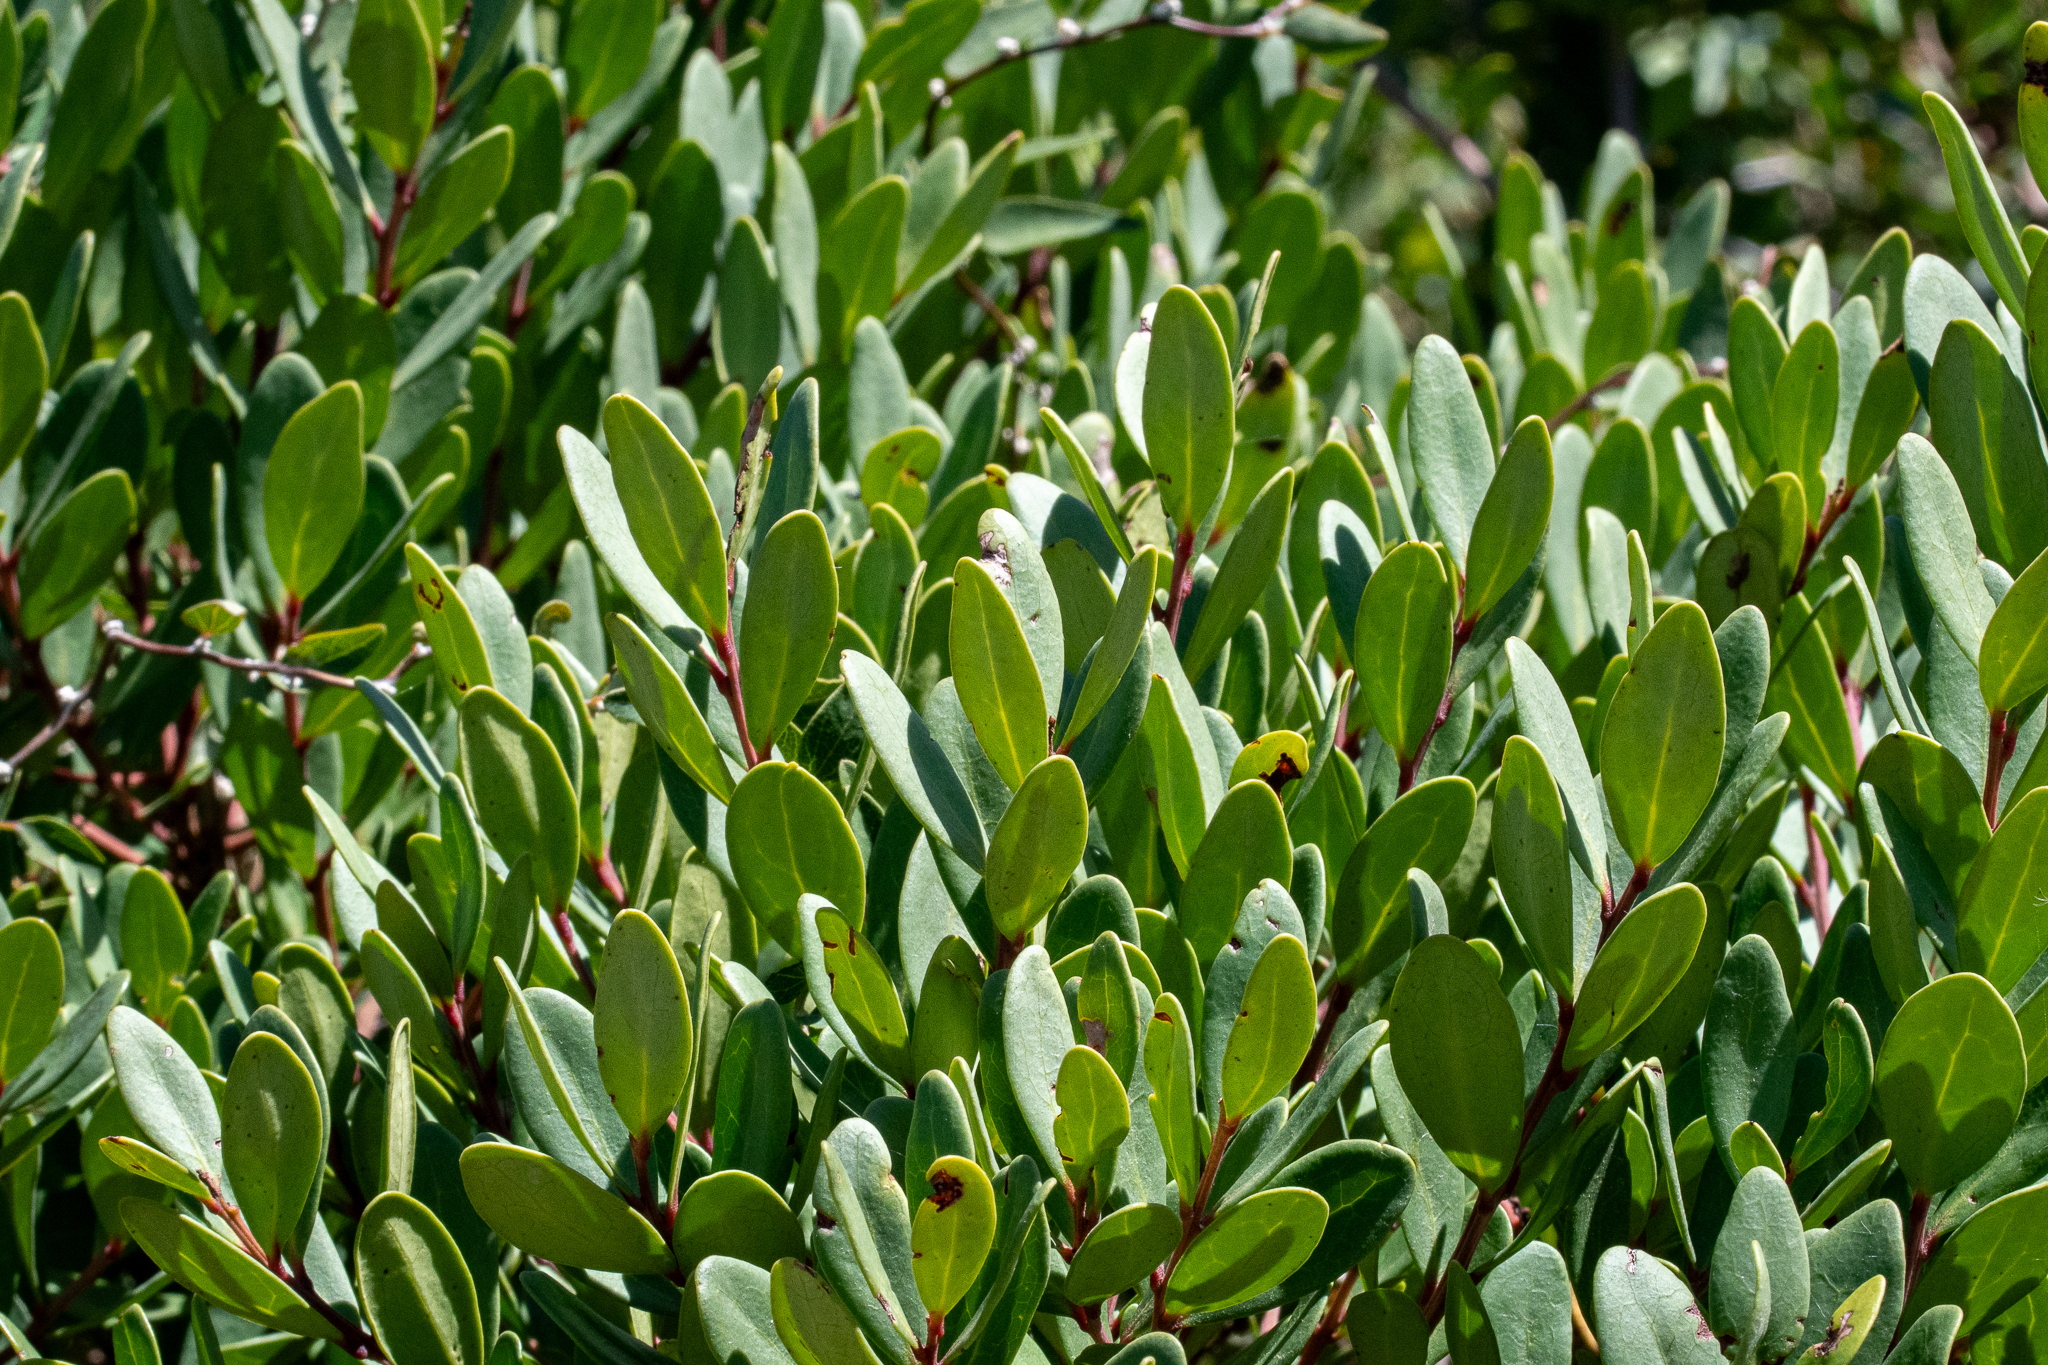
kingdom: Plantae
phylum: Tracheophyta
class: Magnoliopsida
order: Ericales
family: Ebenaceae
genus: Euclea
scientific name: Euclea racemosa
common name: Dune guarri
